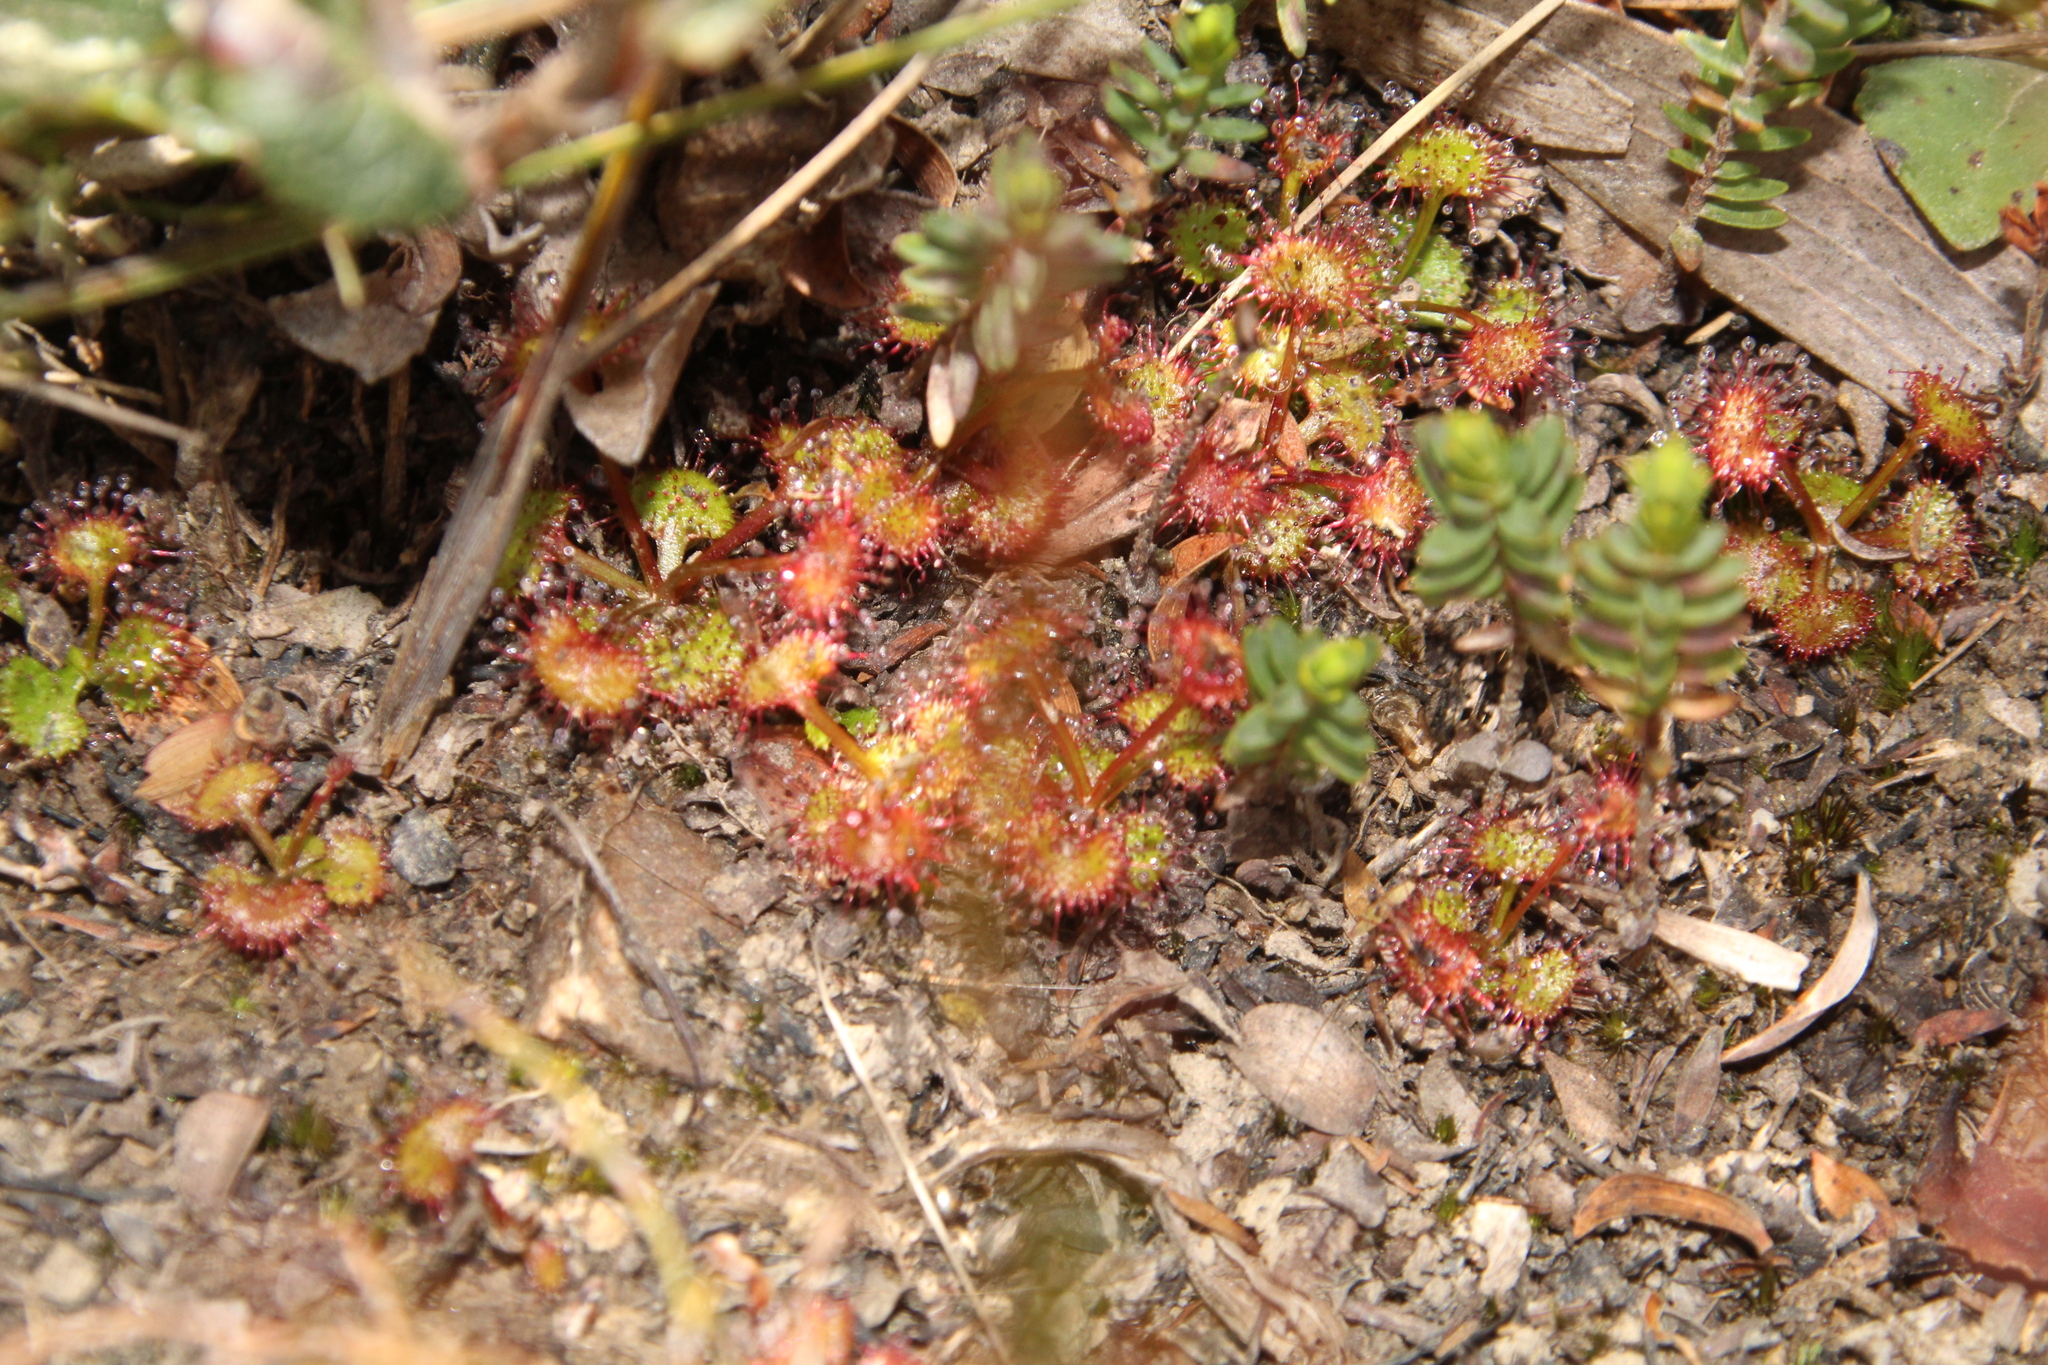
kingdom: Plantae
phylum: Tracheophyta
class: Magnoliopsida
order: Caryophyllales
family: Droseraceae
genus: Drosera
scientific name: Drosera monticola
